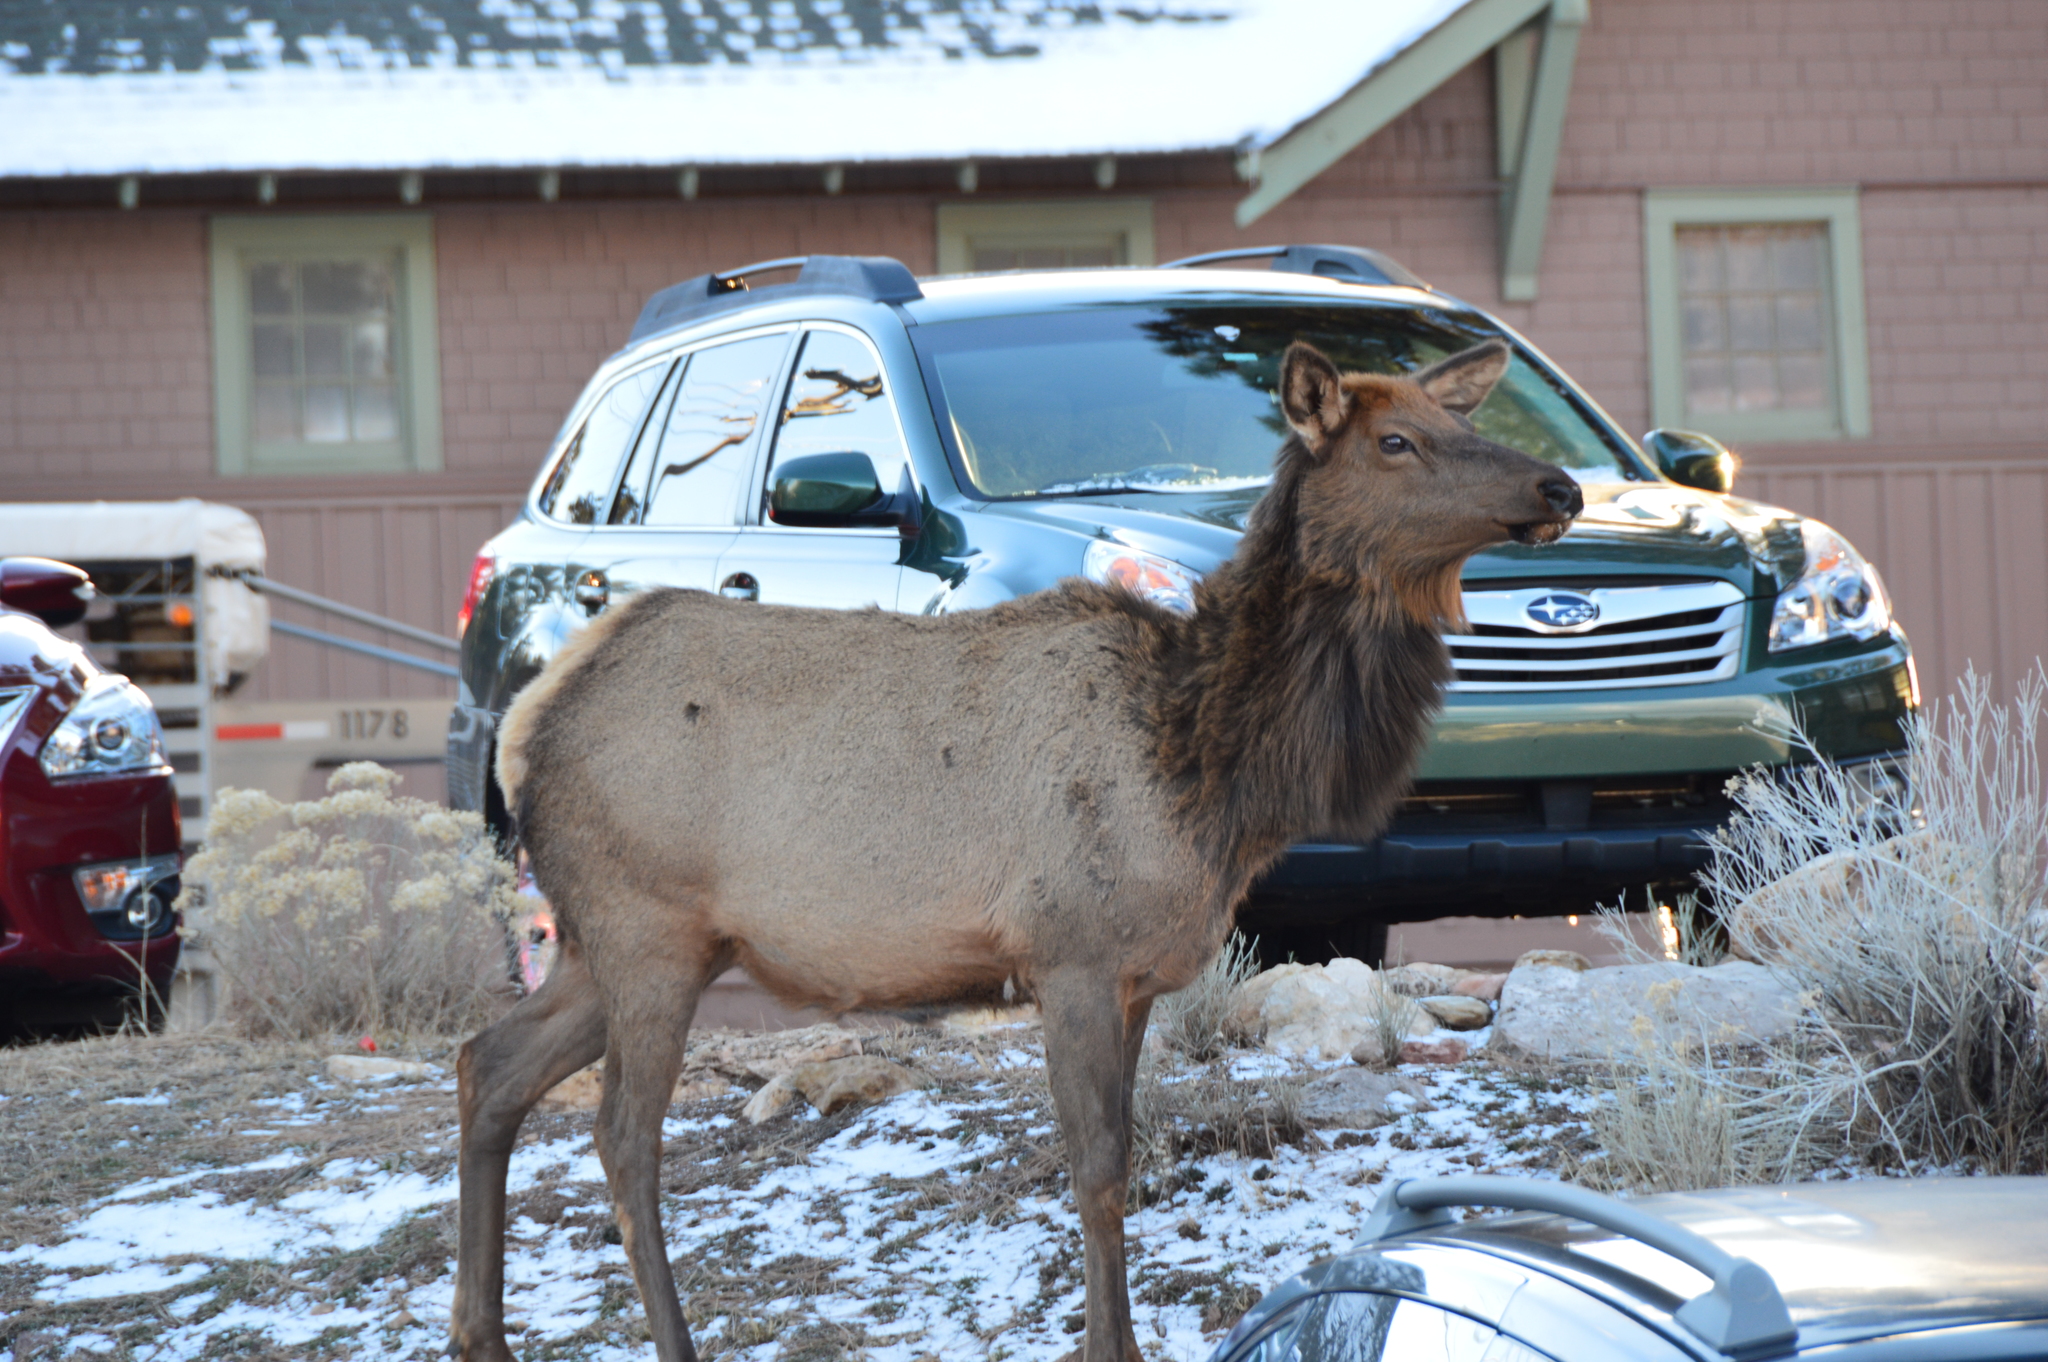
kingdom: Animalia
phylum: Chordata
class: Mammalia
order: Artiodactyla
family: Cervidae
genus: Cervus
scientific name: Cervus elaphus
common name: Red deer
